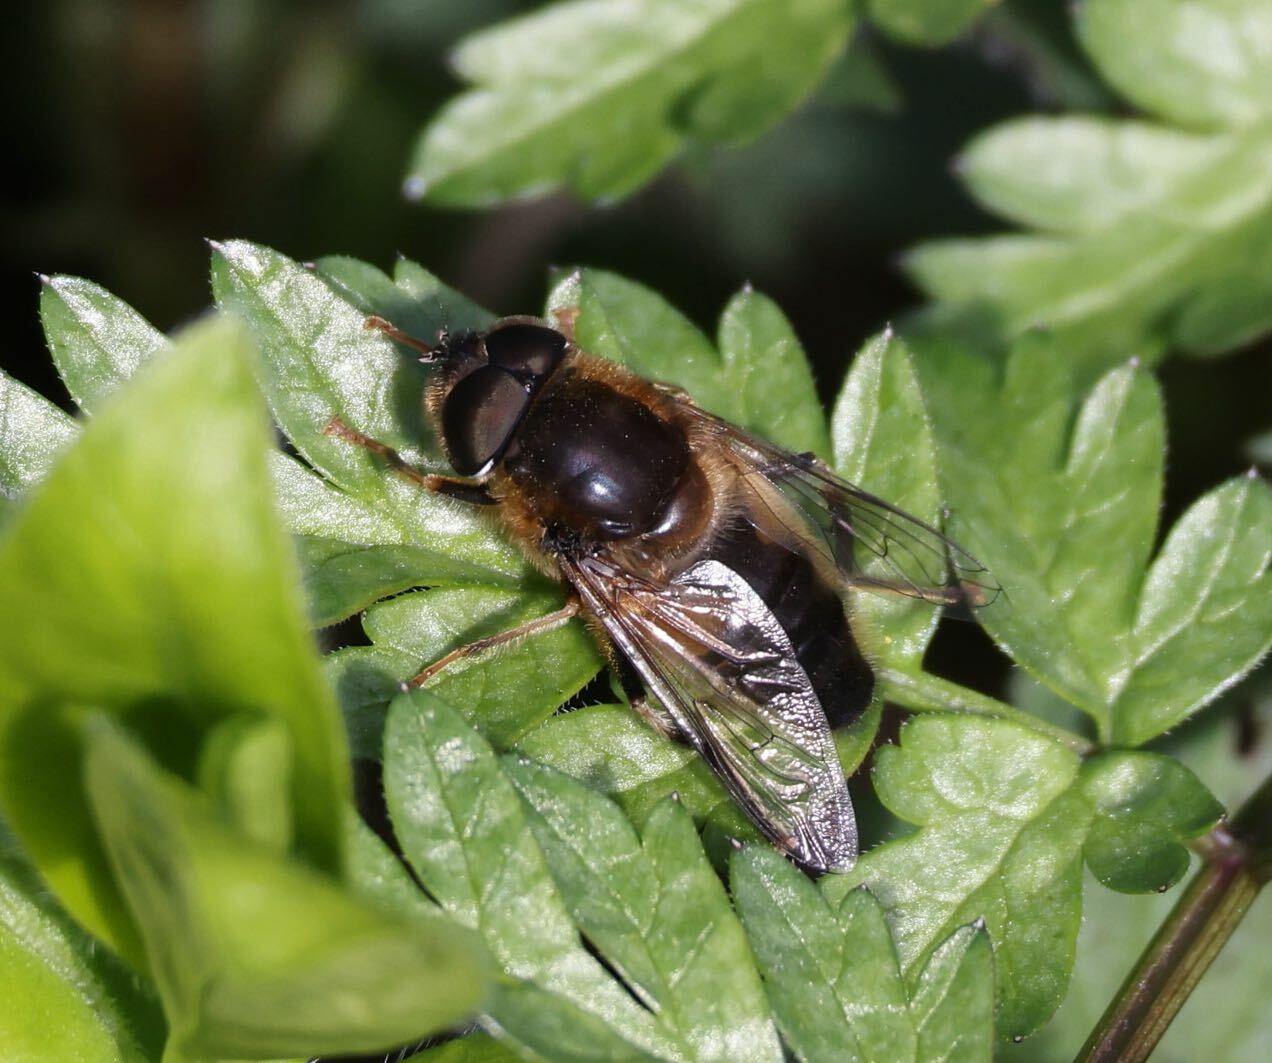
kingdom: Animalia
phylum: Arthropoda
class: Insecta
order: Diptera
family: Syrphidae
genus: Eristalis
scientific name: Eristalis pertinax
